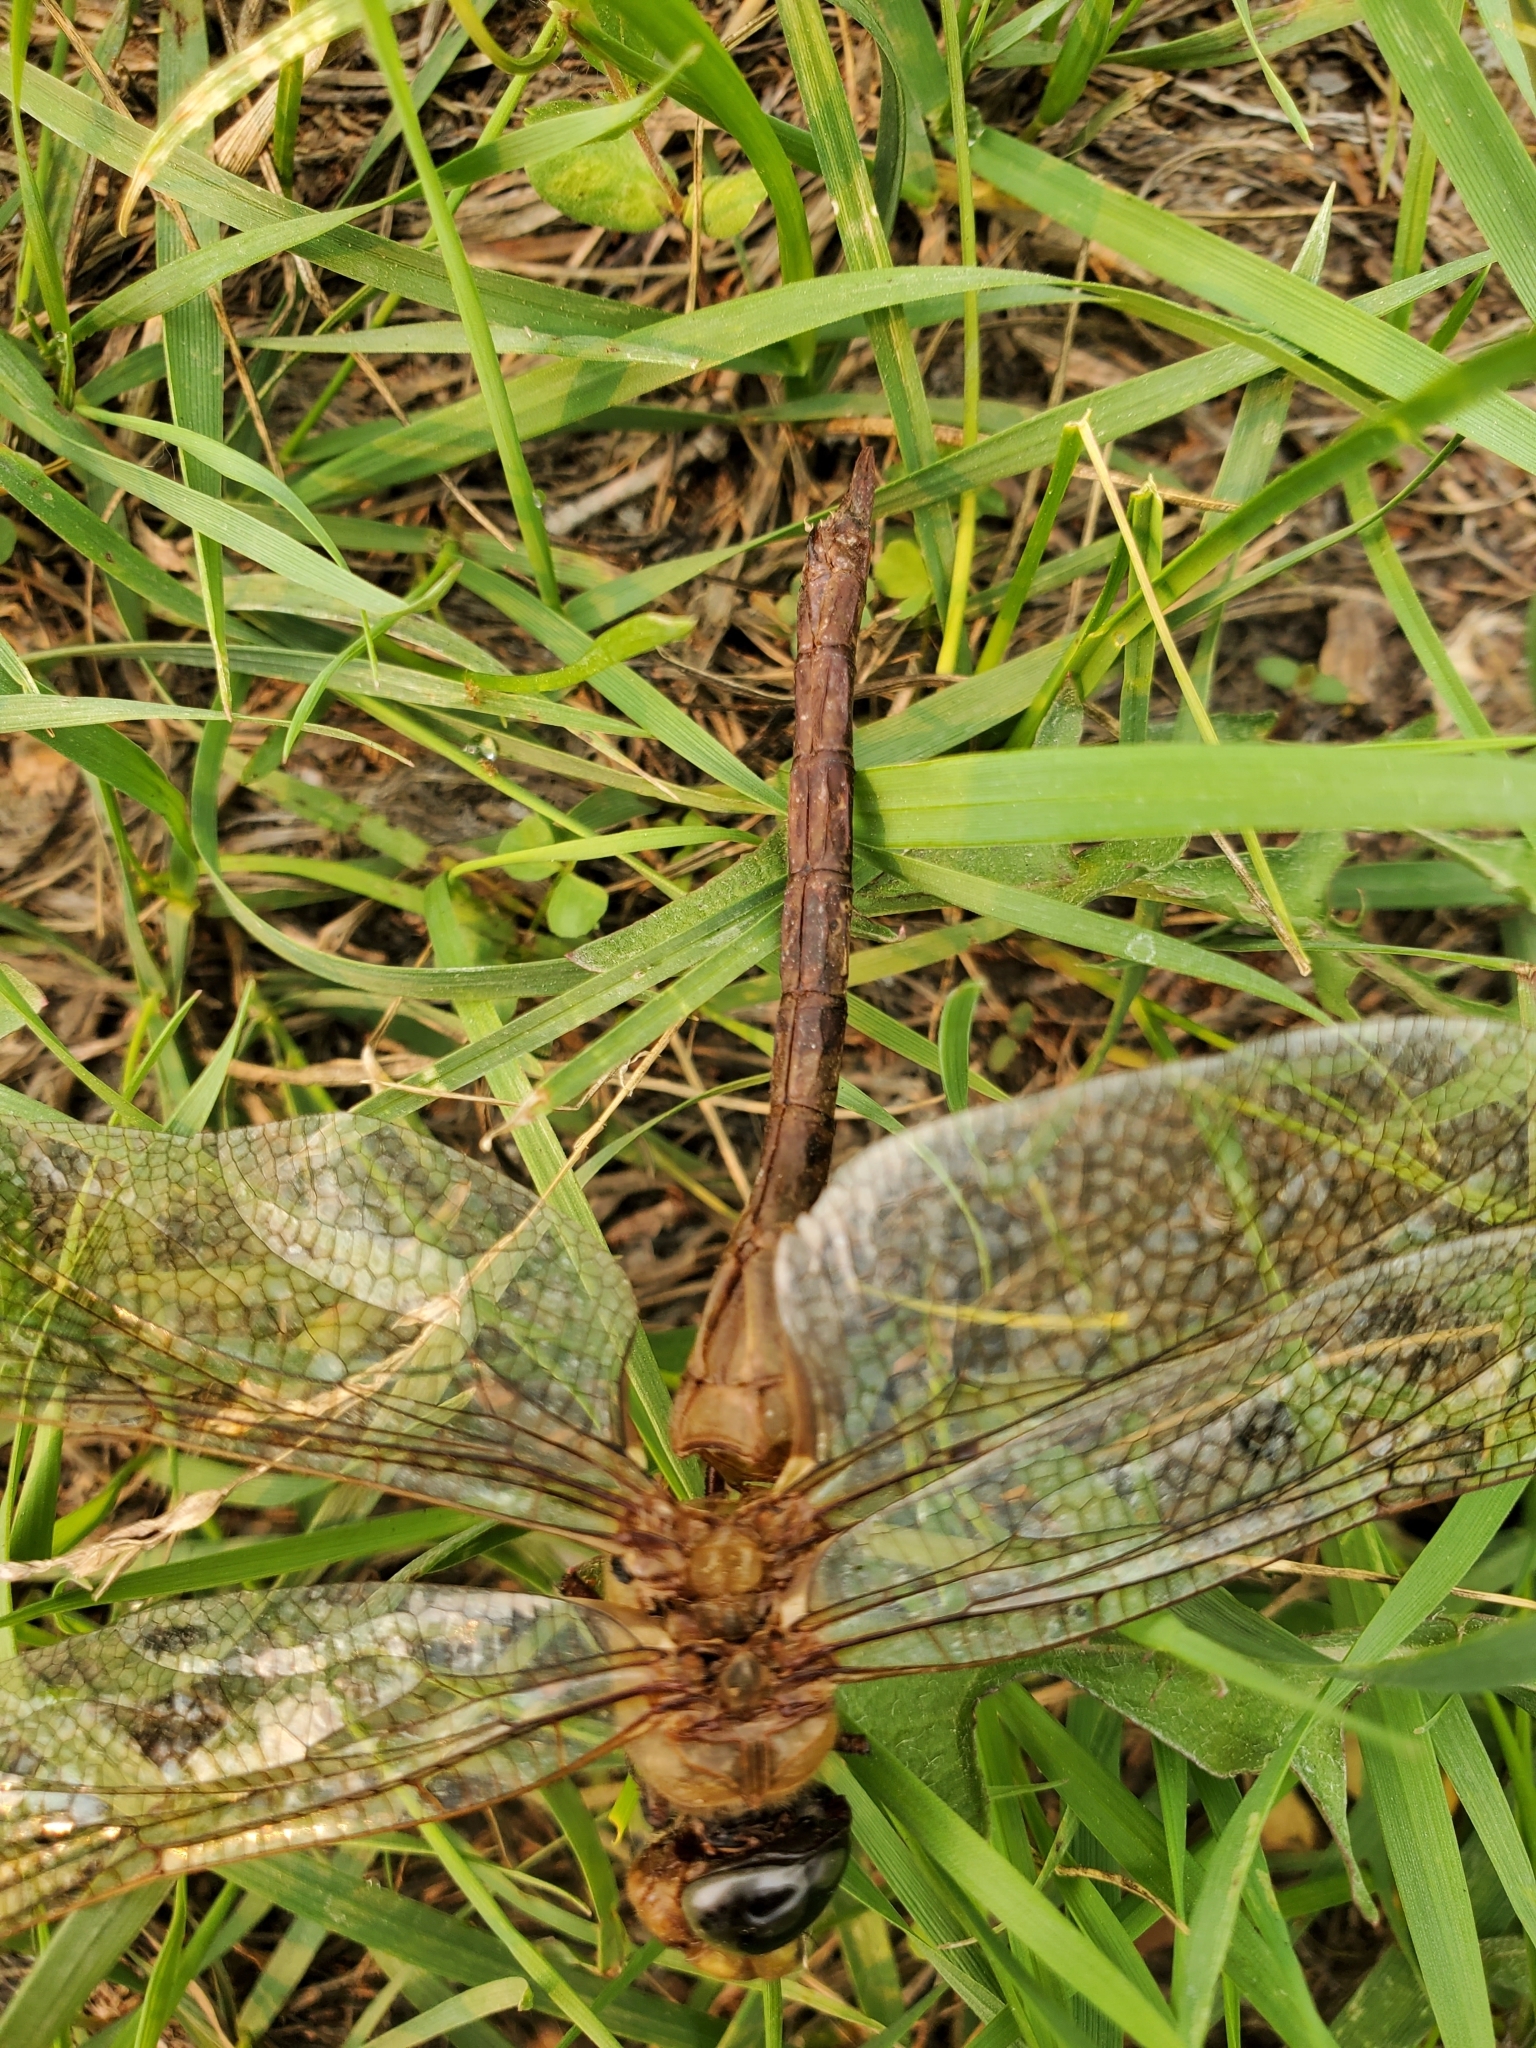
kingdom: Animalia
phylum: Arthropoda
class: Insecta
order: Odonata
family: Aeshnidae
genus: Anax
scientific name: Anax junius
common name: Common green darner
